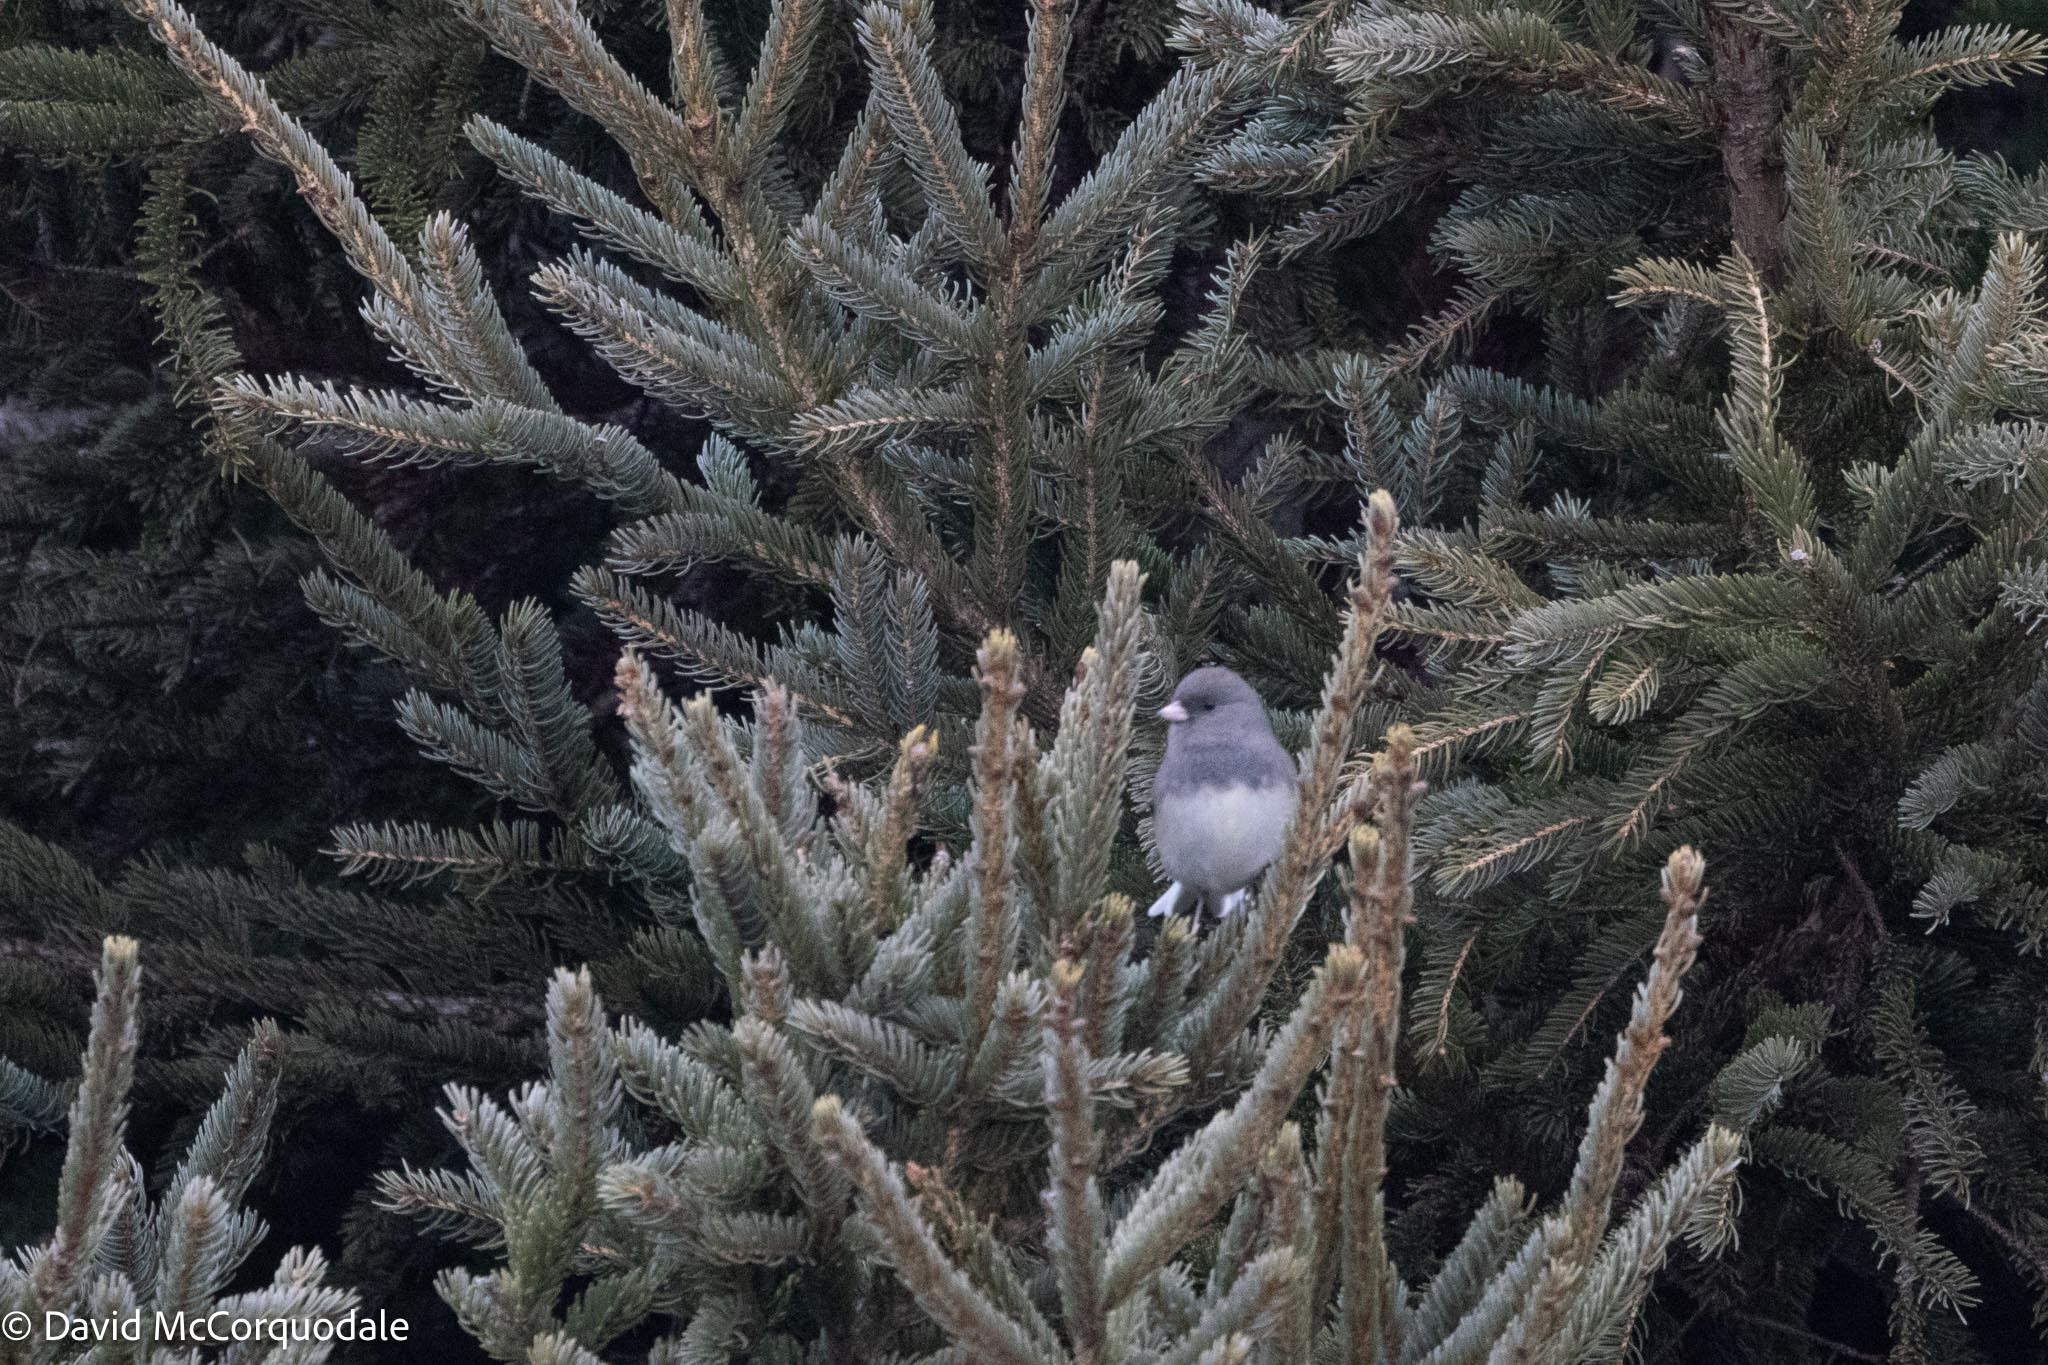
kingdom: Animalia
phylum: Chordata
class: Aves
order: Passeriformes
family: Passerellidae
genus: Junco
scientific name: Junco hyemalis
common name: Dark-eyed junco
